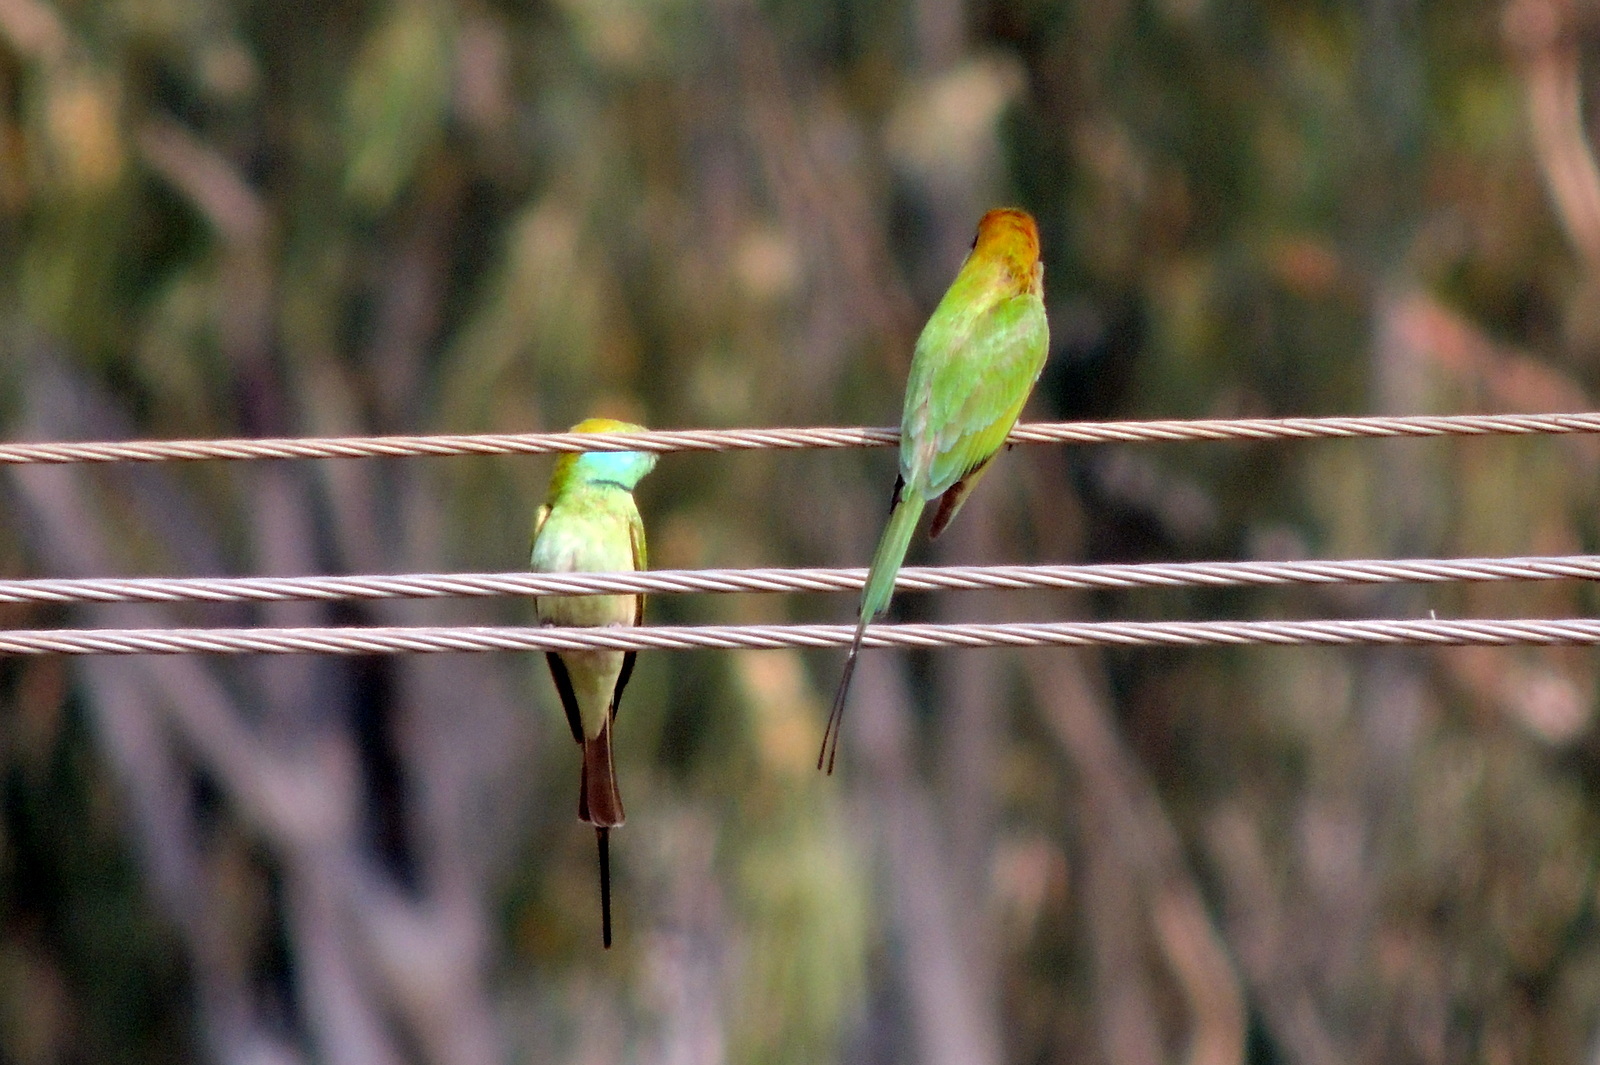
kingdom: Animalia
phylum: Chordata
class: Aves
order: Coraciiformes
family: Meropidae
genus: Merops
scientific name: Merops orientalis
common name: Green bee-eater
